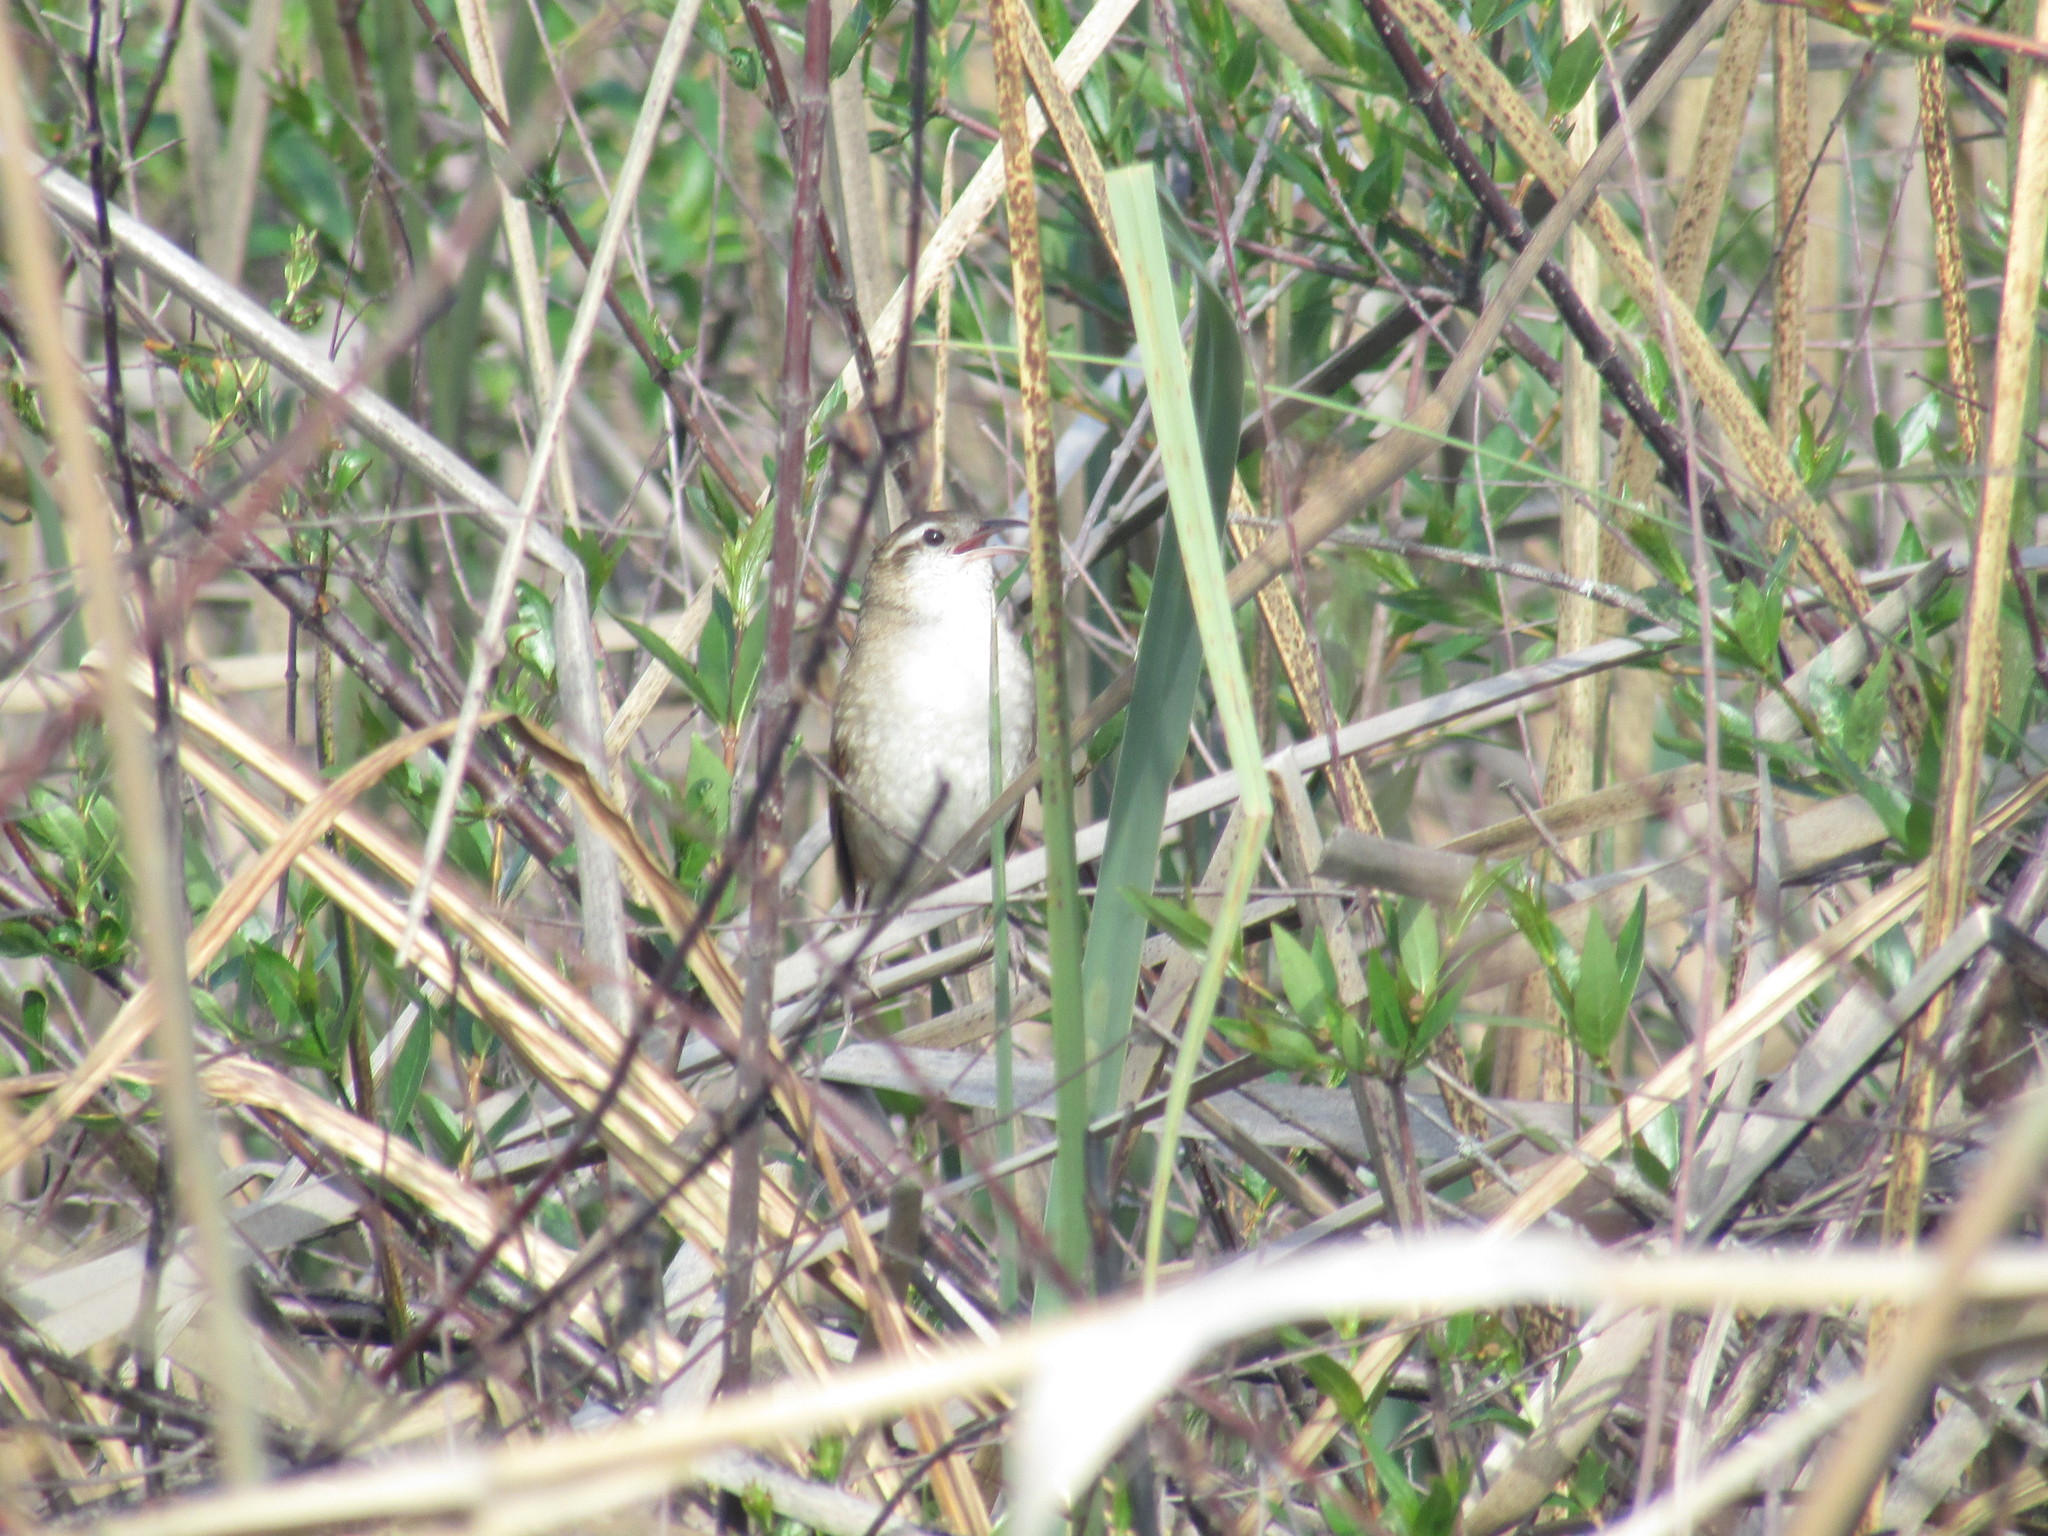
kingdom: Animalia
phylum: Chordata
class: Aves
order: Passeriformes
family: Furnariidae
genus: Limnornis
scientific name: Limnornis curvirostris
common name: Curve-billed reedhaunter
